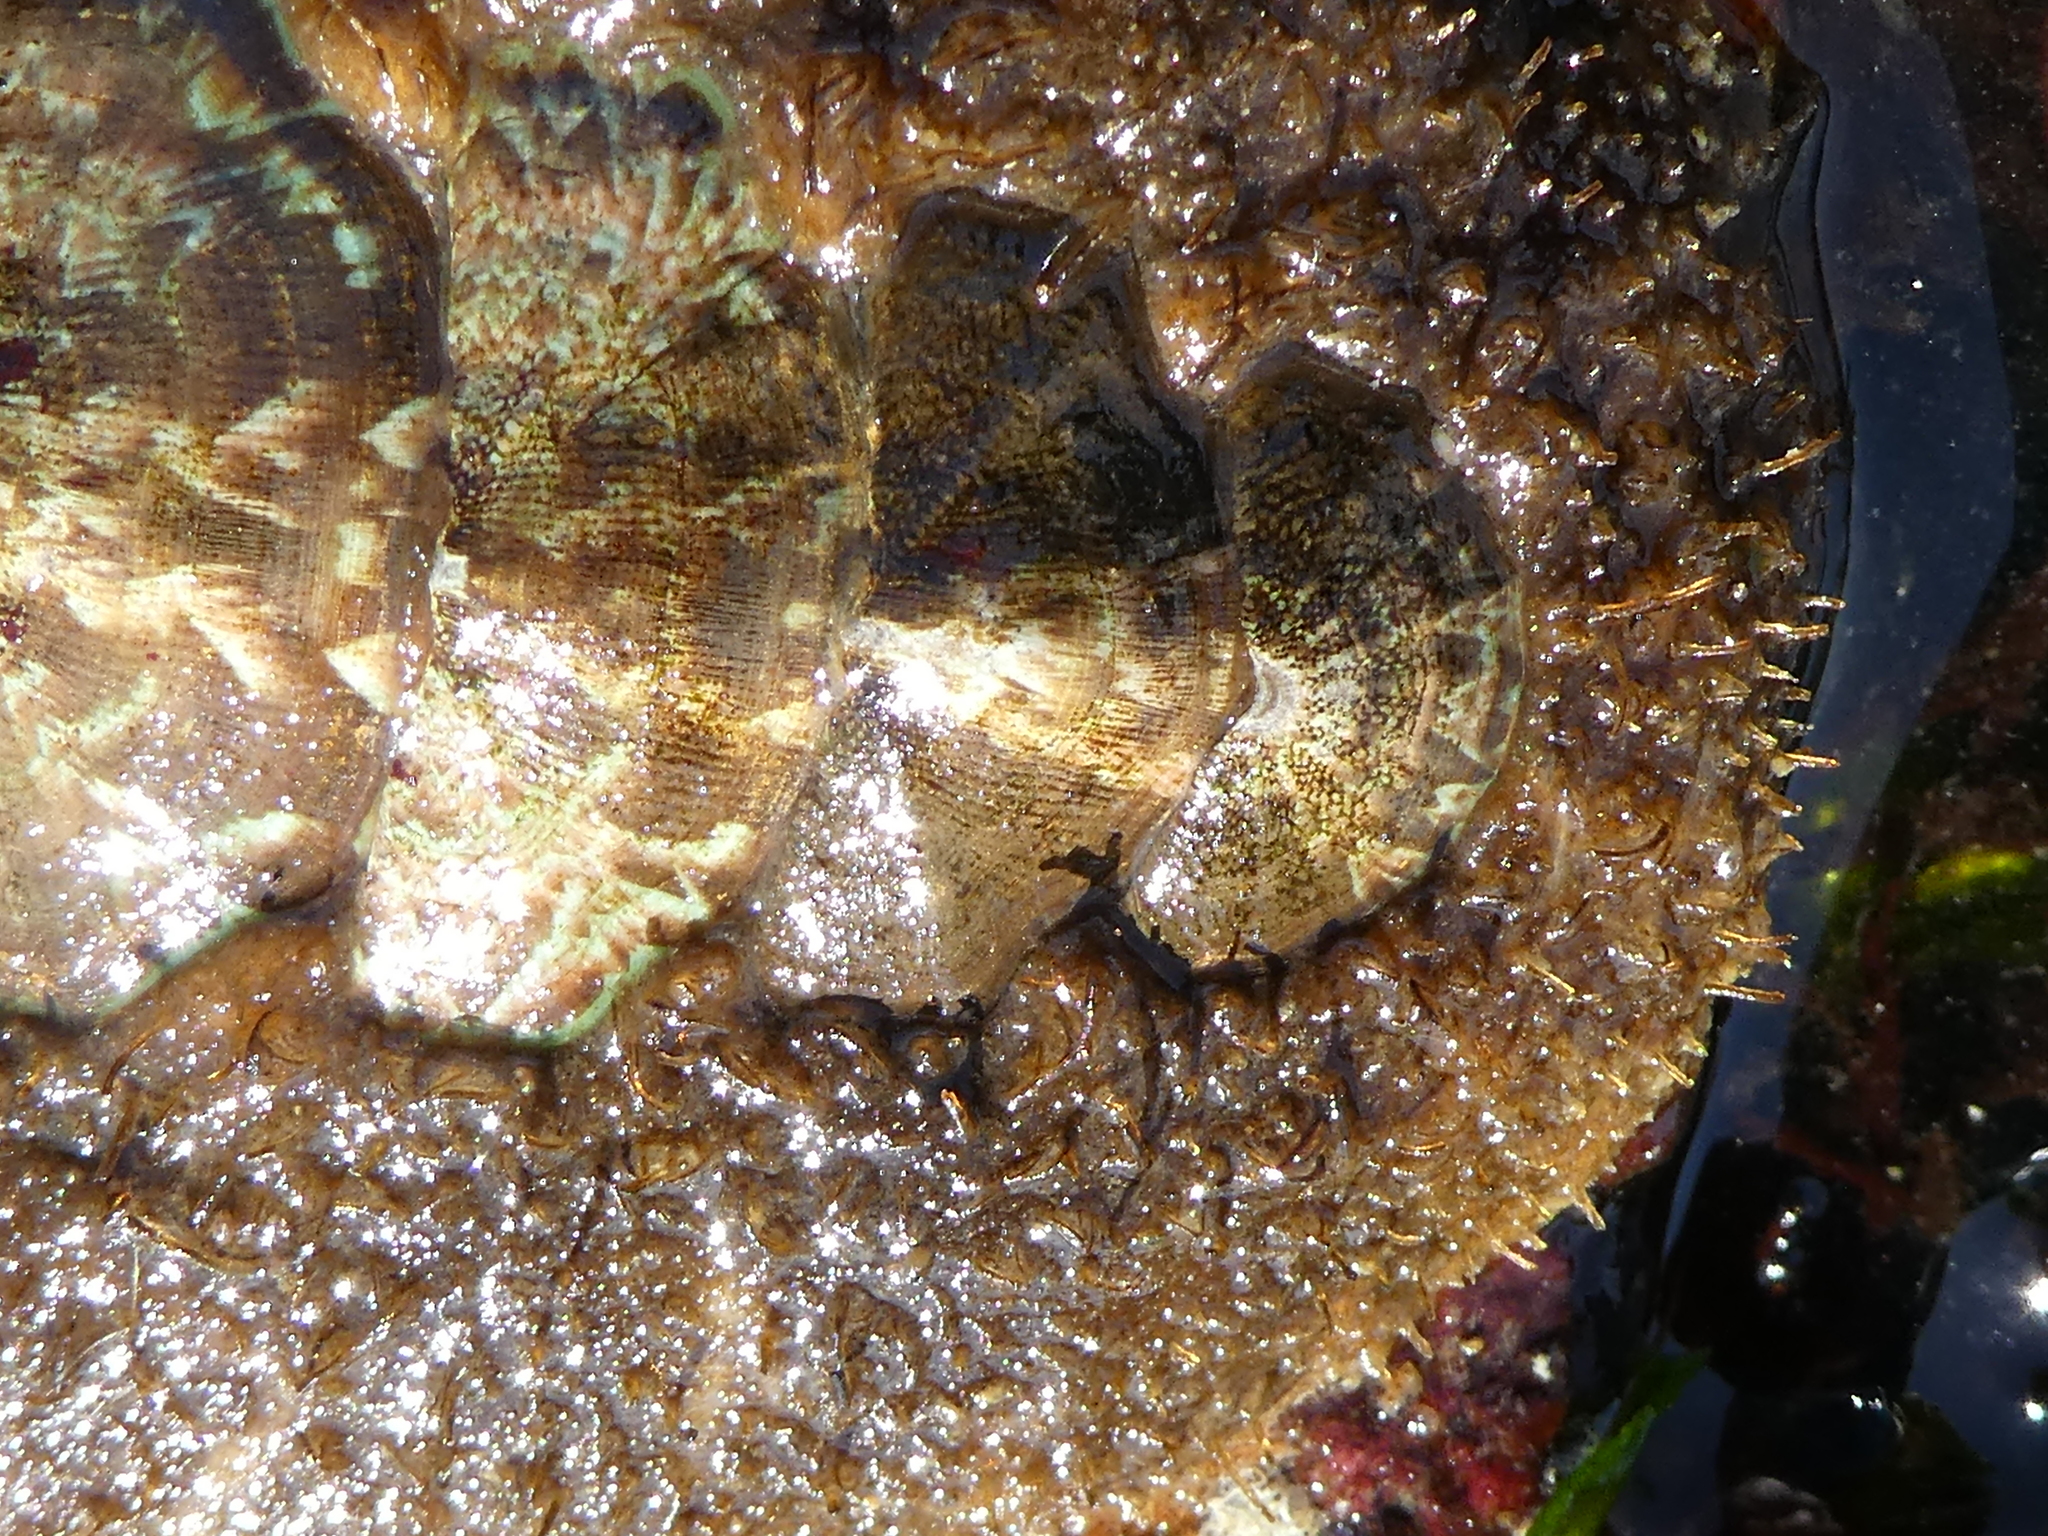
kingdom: Animalia
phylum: Mollusca
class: Polyplacophora
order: Chitonida
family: Mopaliidae
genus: Mopalia
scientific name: Mopalia ciliata
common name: Hairy chiton
